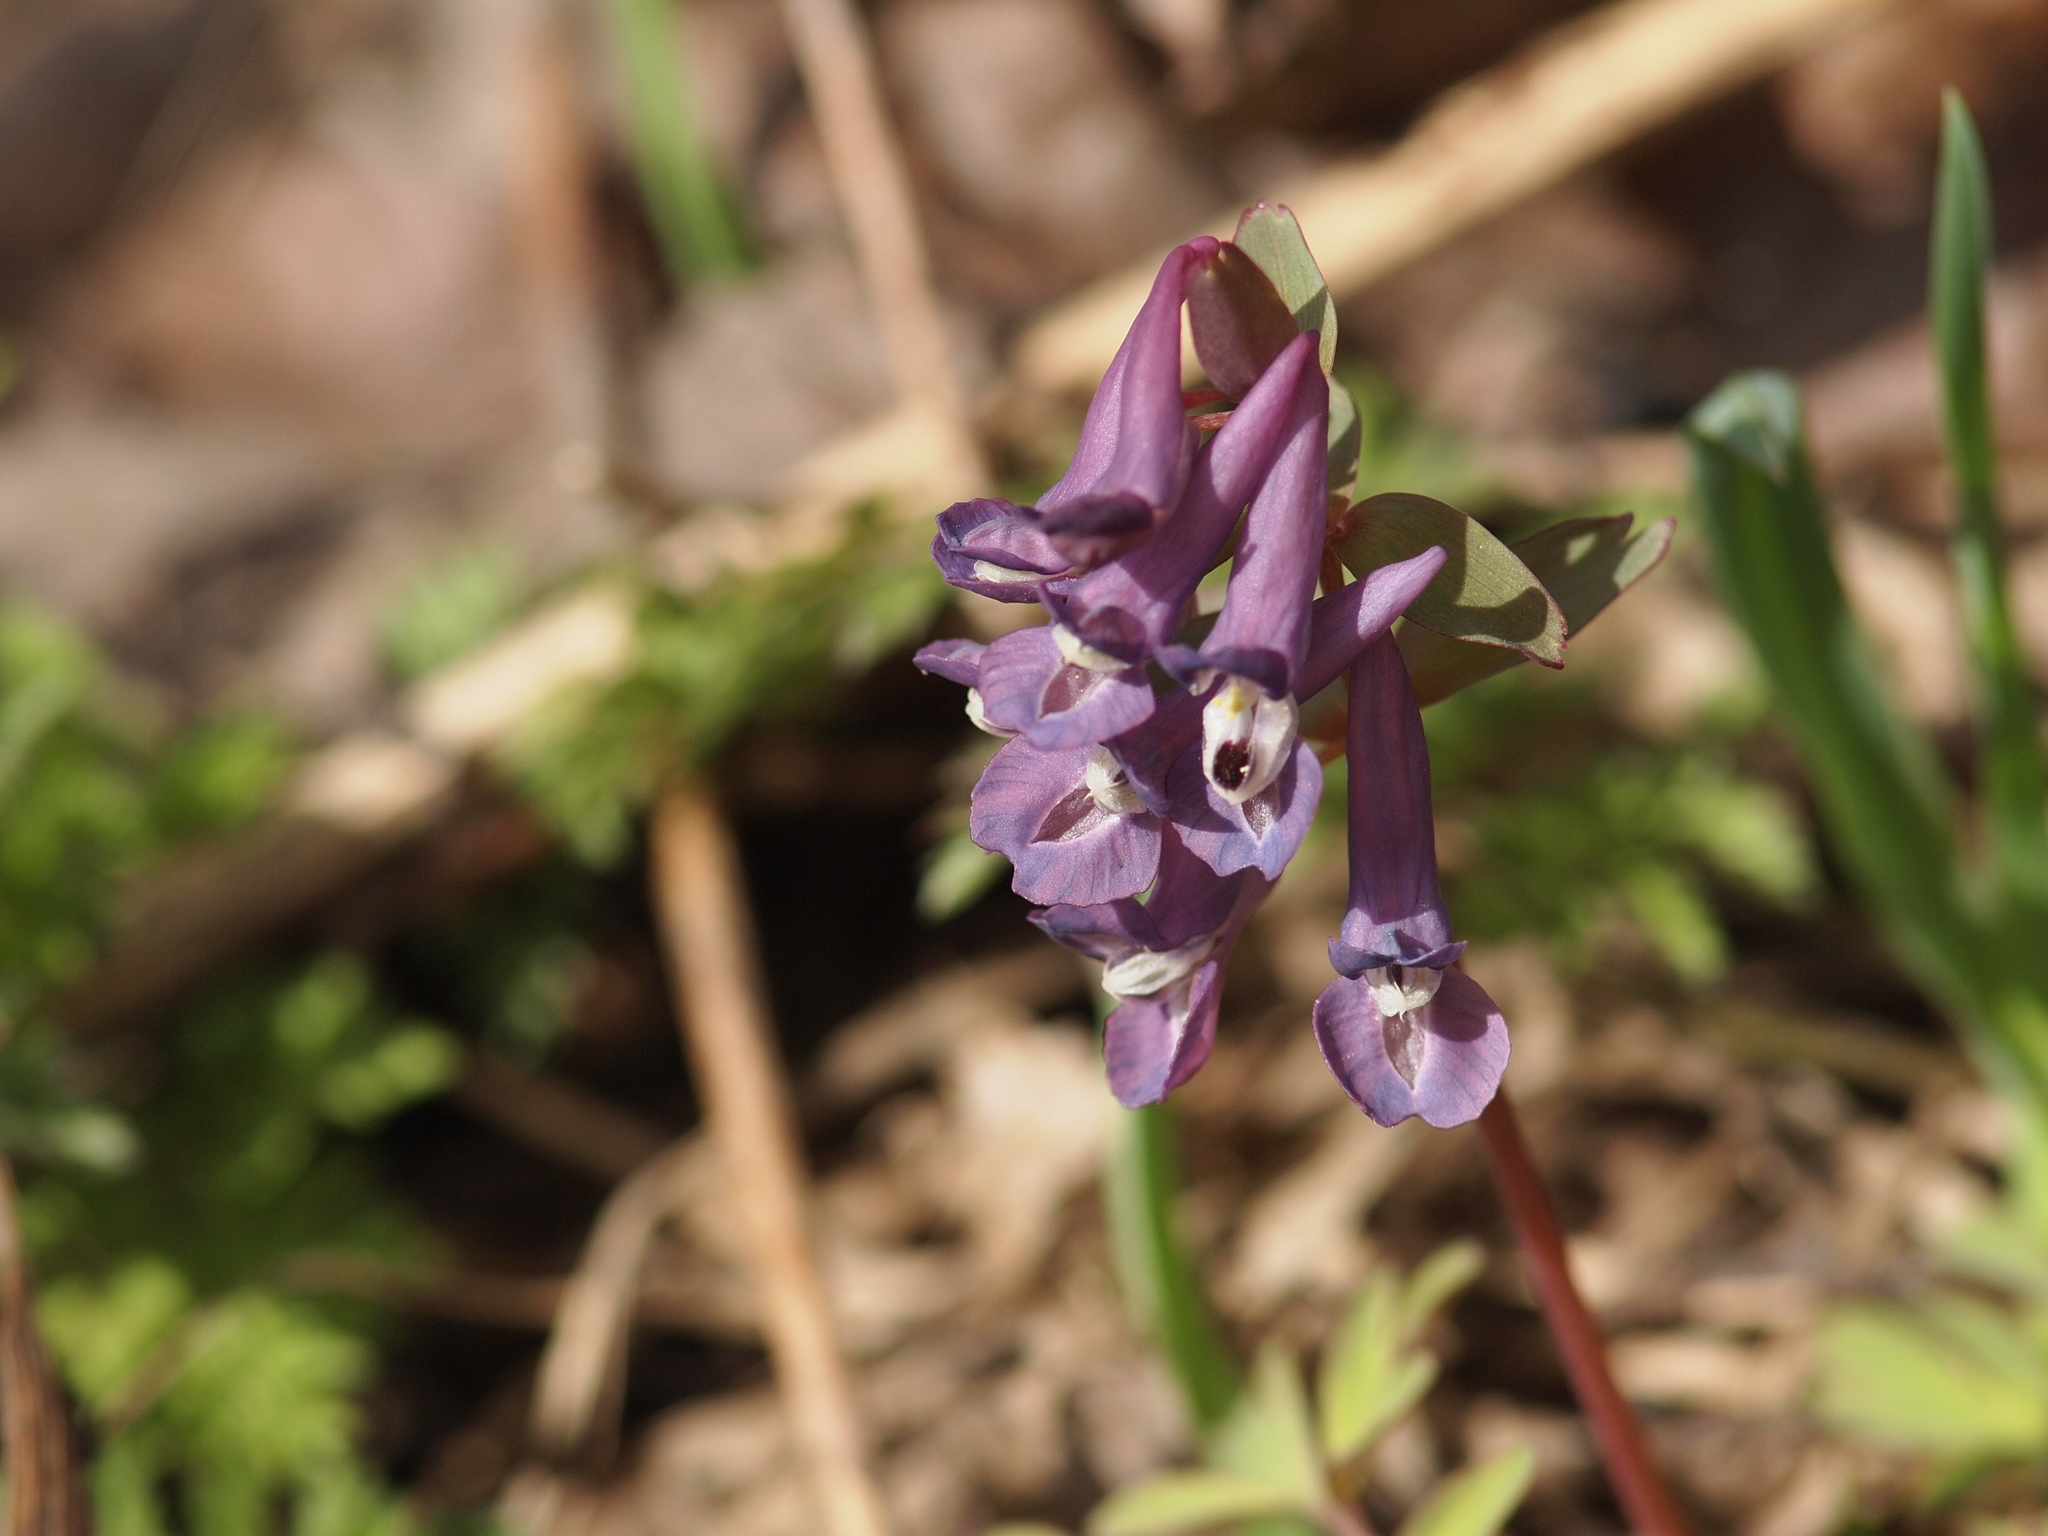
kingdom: Plantae
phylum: Tracheophyta
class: Magnoliopsida
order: Ranunculales
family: Papaveraceae
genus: Corydalis
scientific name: Corydalis solida
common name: Bird-in-a-bush
